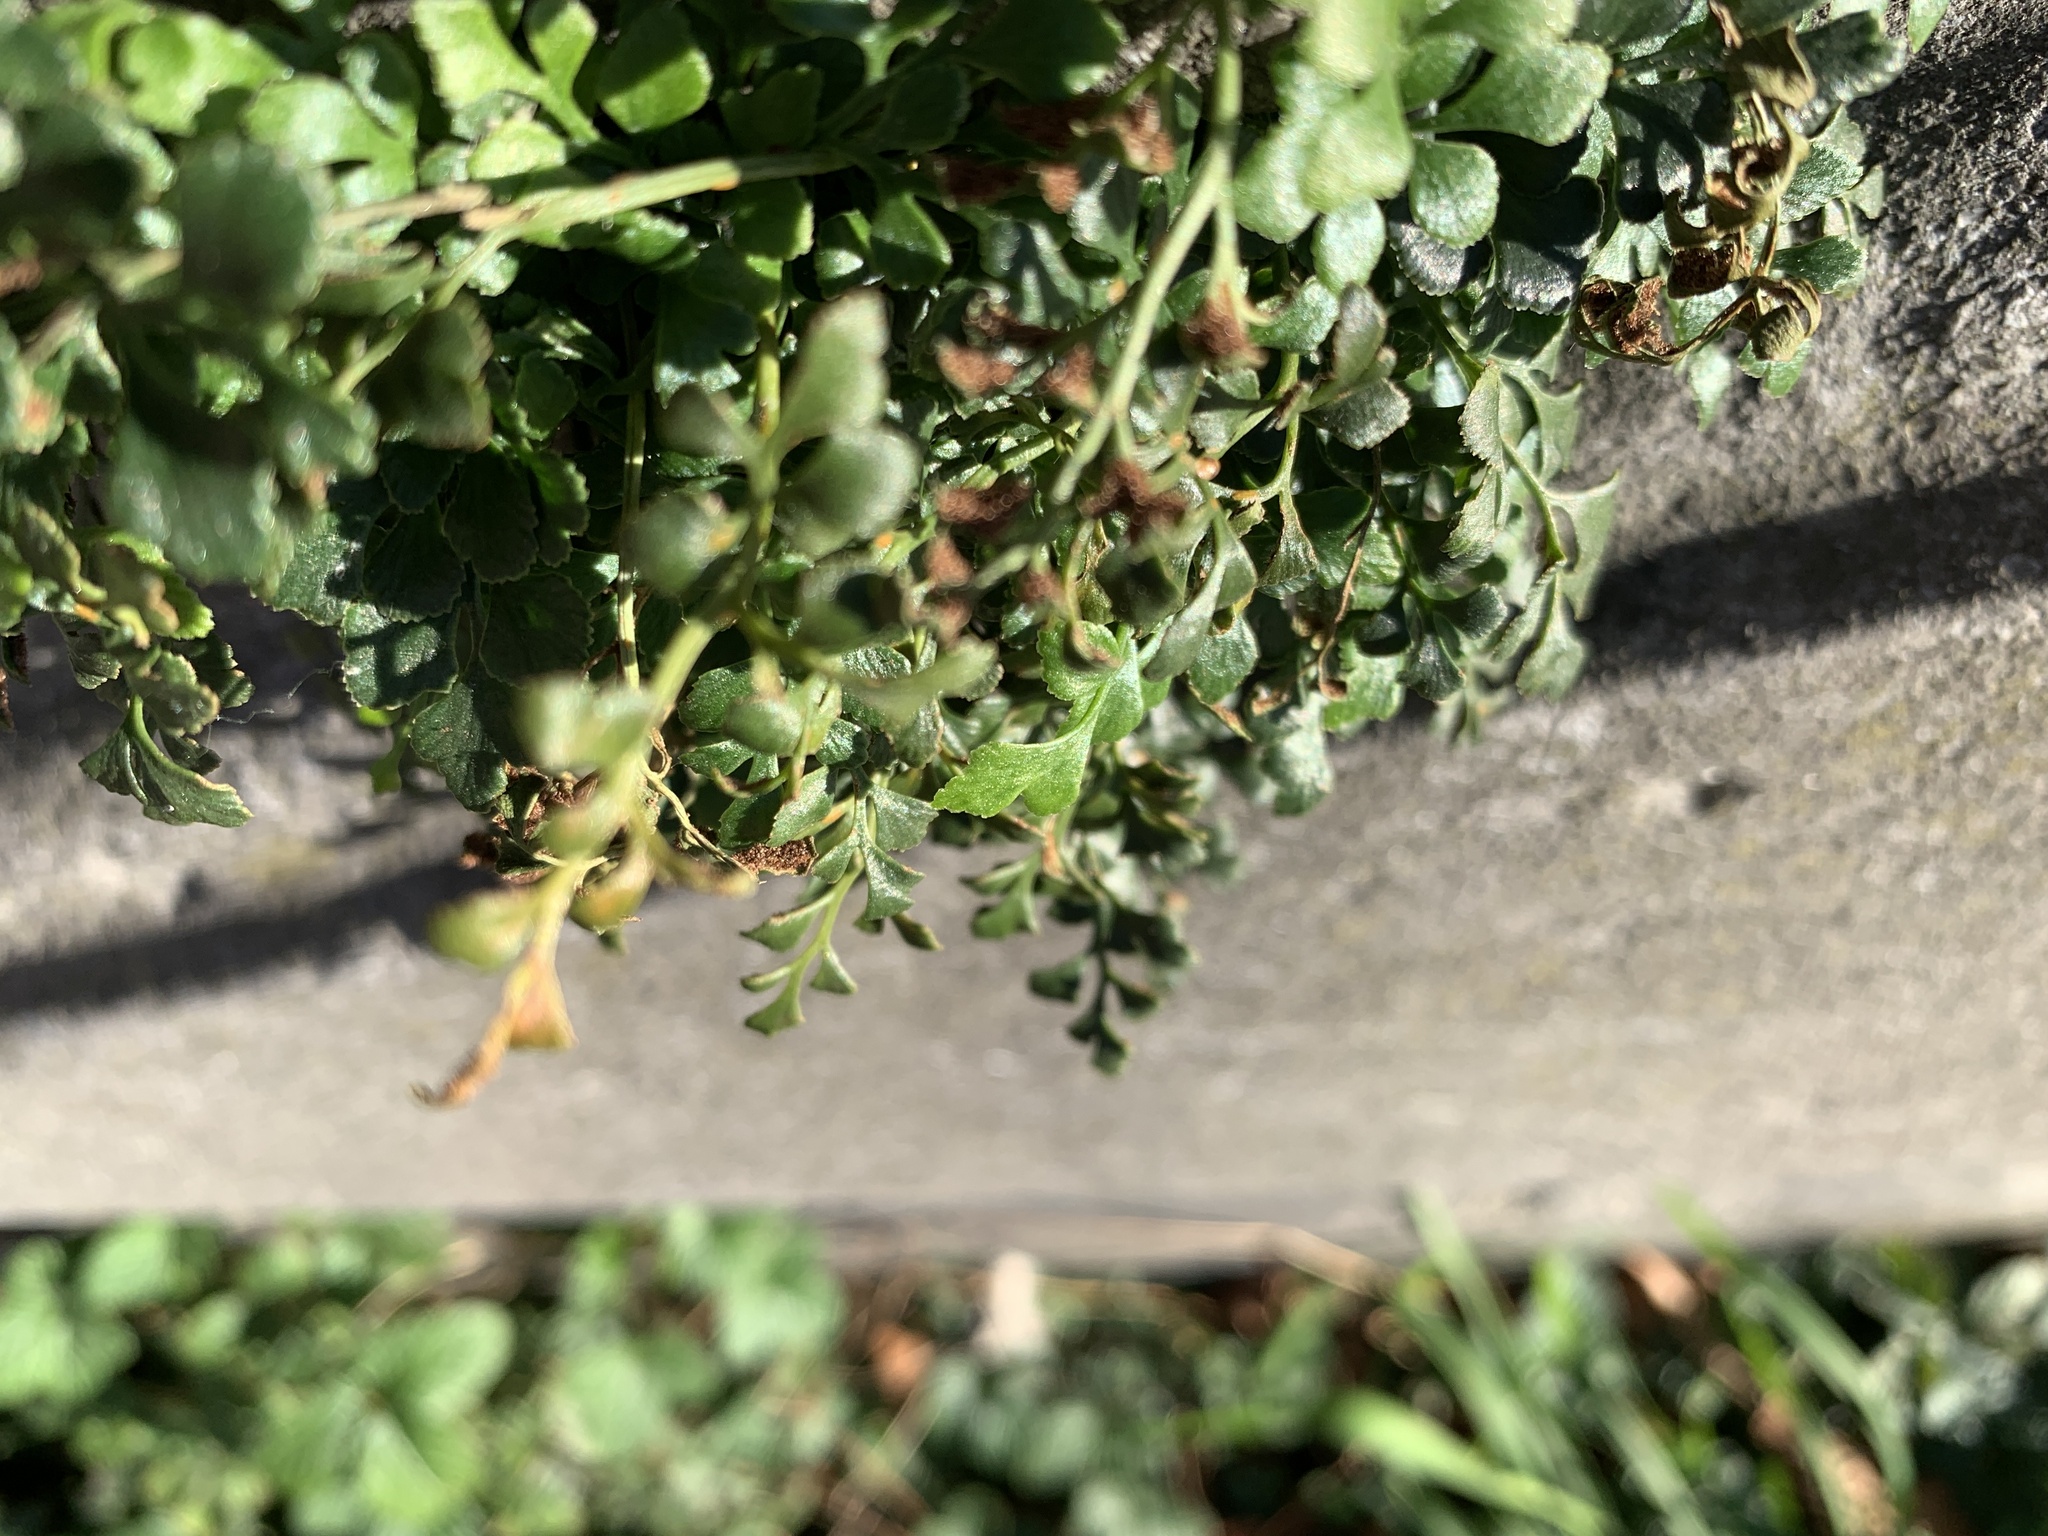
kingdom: Plantae
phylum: Tracheophyta
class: Polypodiopsida
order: Polypodiales
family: Aspleniaceae
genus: Asplenium
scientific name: Asplenium ruta-muraria
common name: Wall-rue
